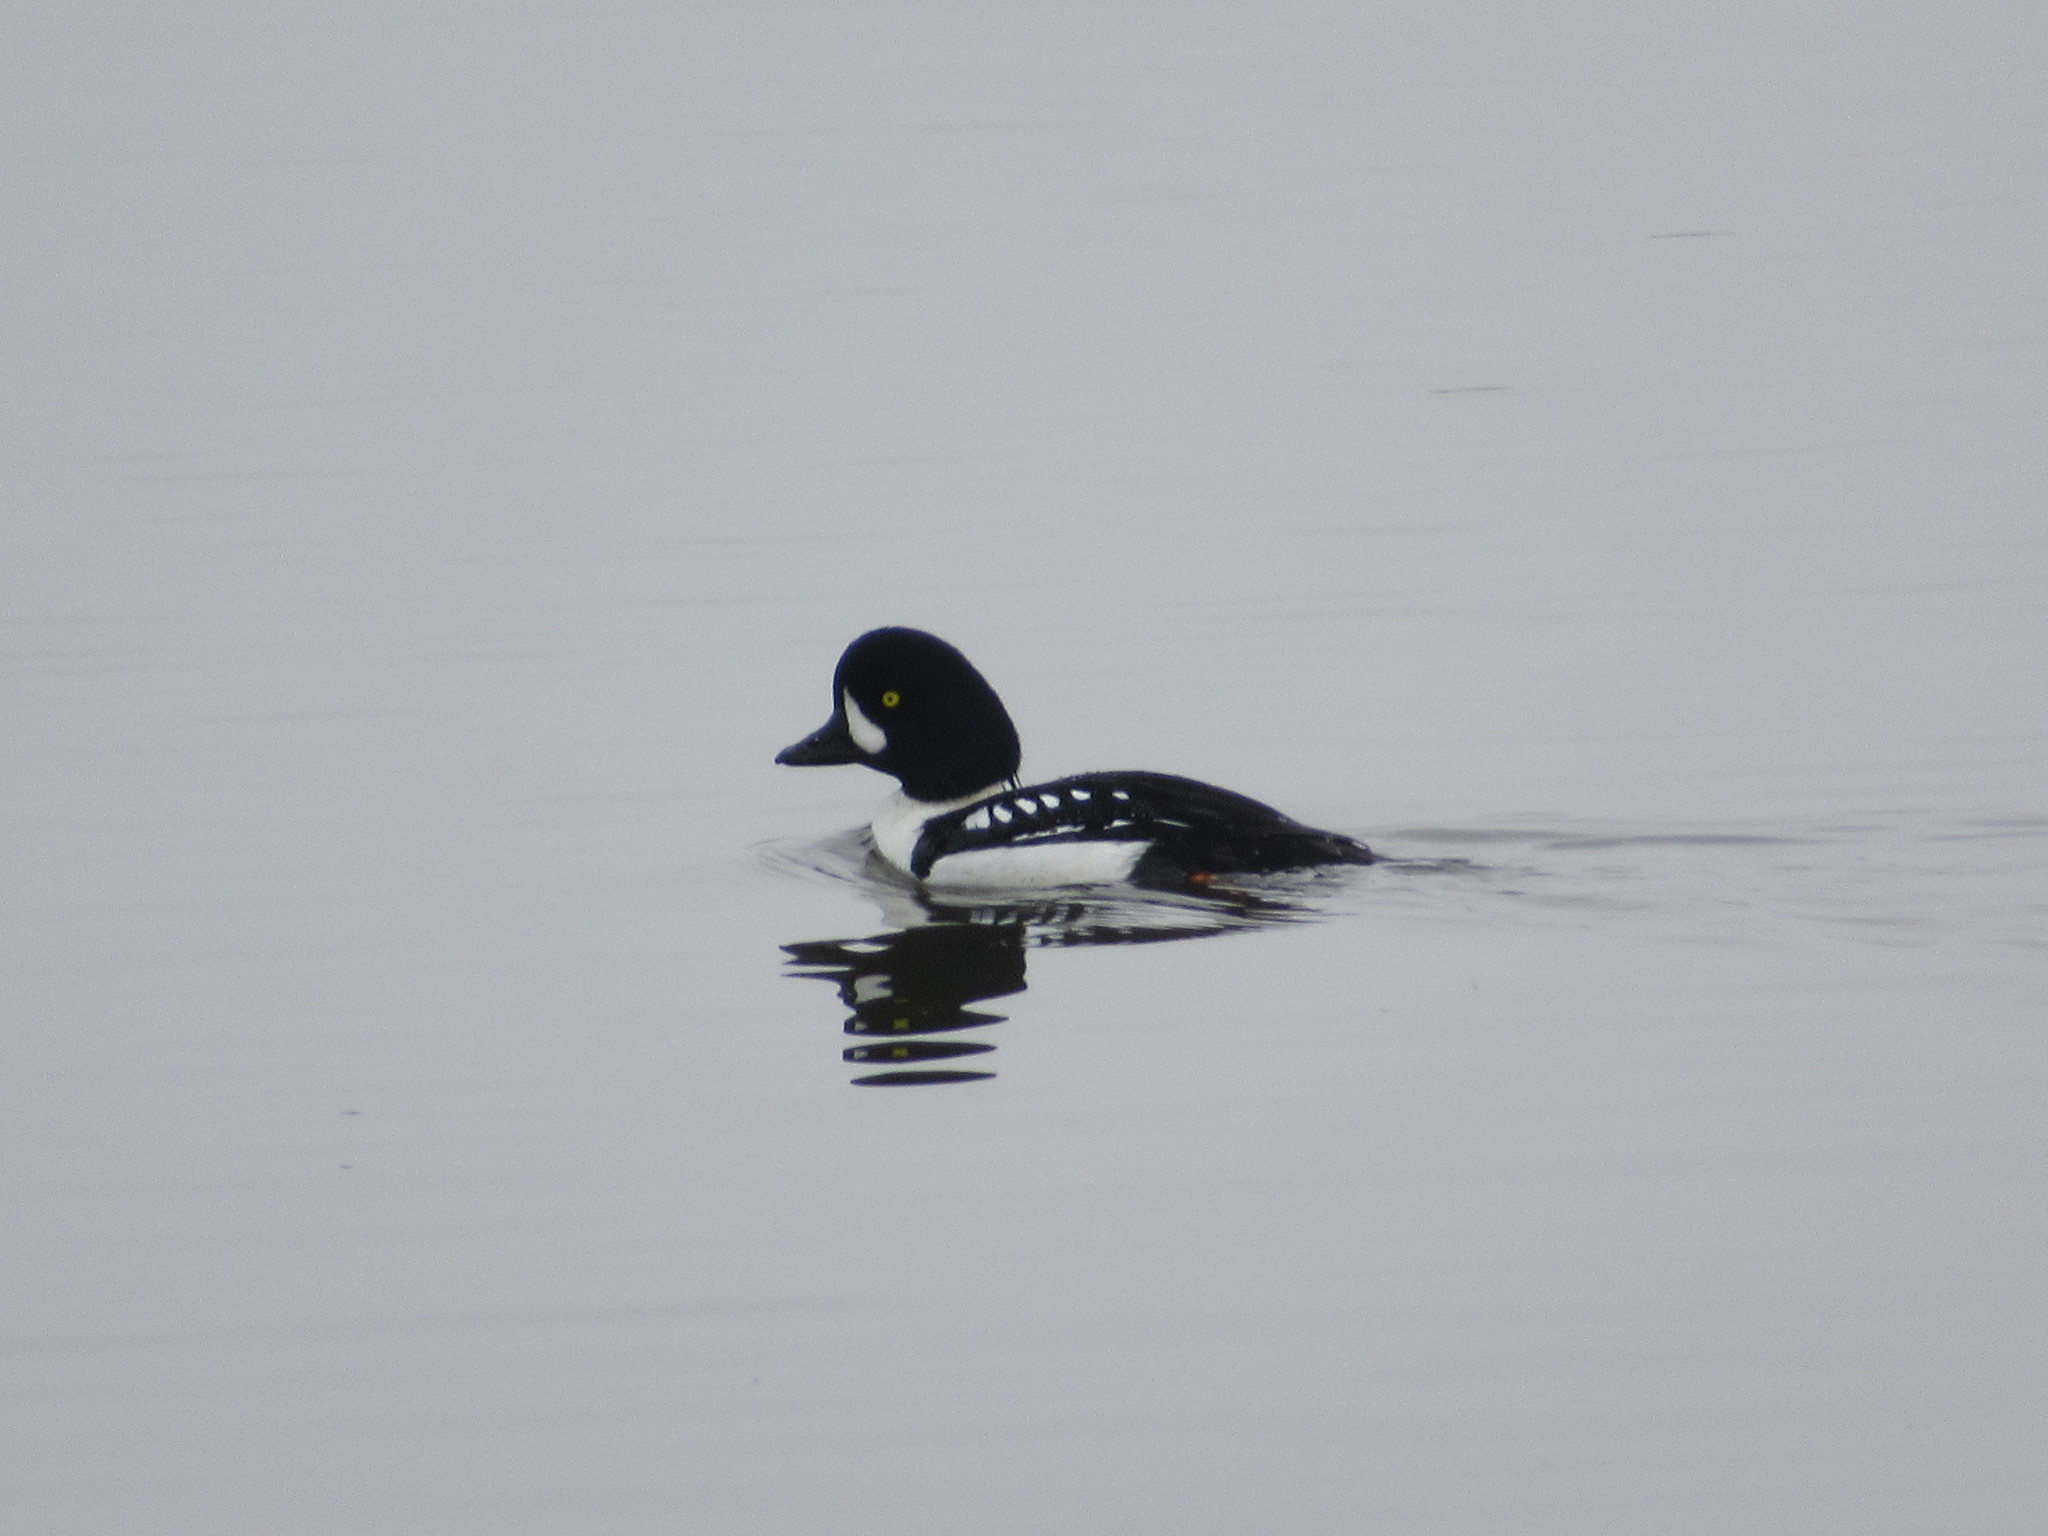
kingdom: Animalia
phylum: Chordata
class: Aves
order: Anseriformes
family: Anatidae
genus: Bucephala
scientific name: Bucephala islandica
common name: Barrow's goldeneye
